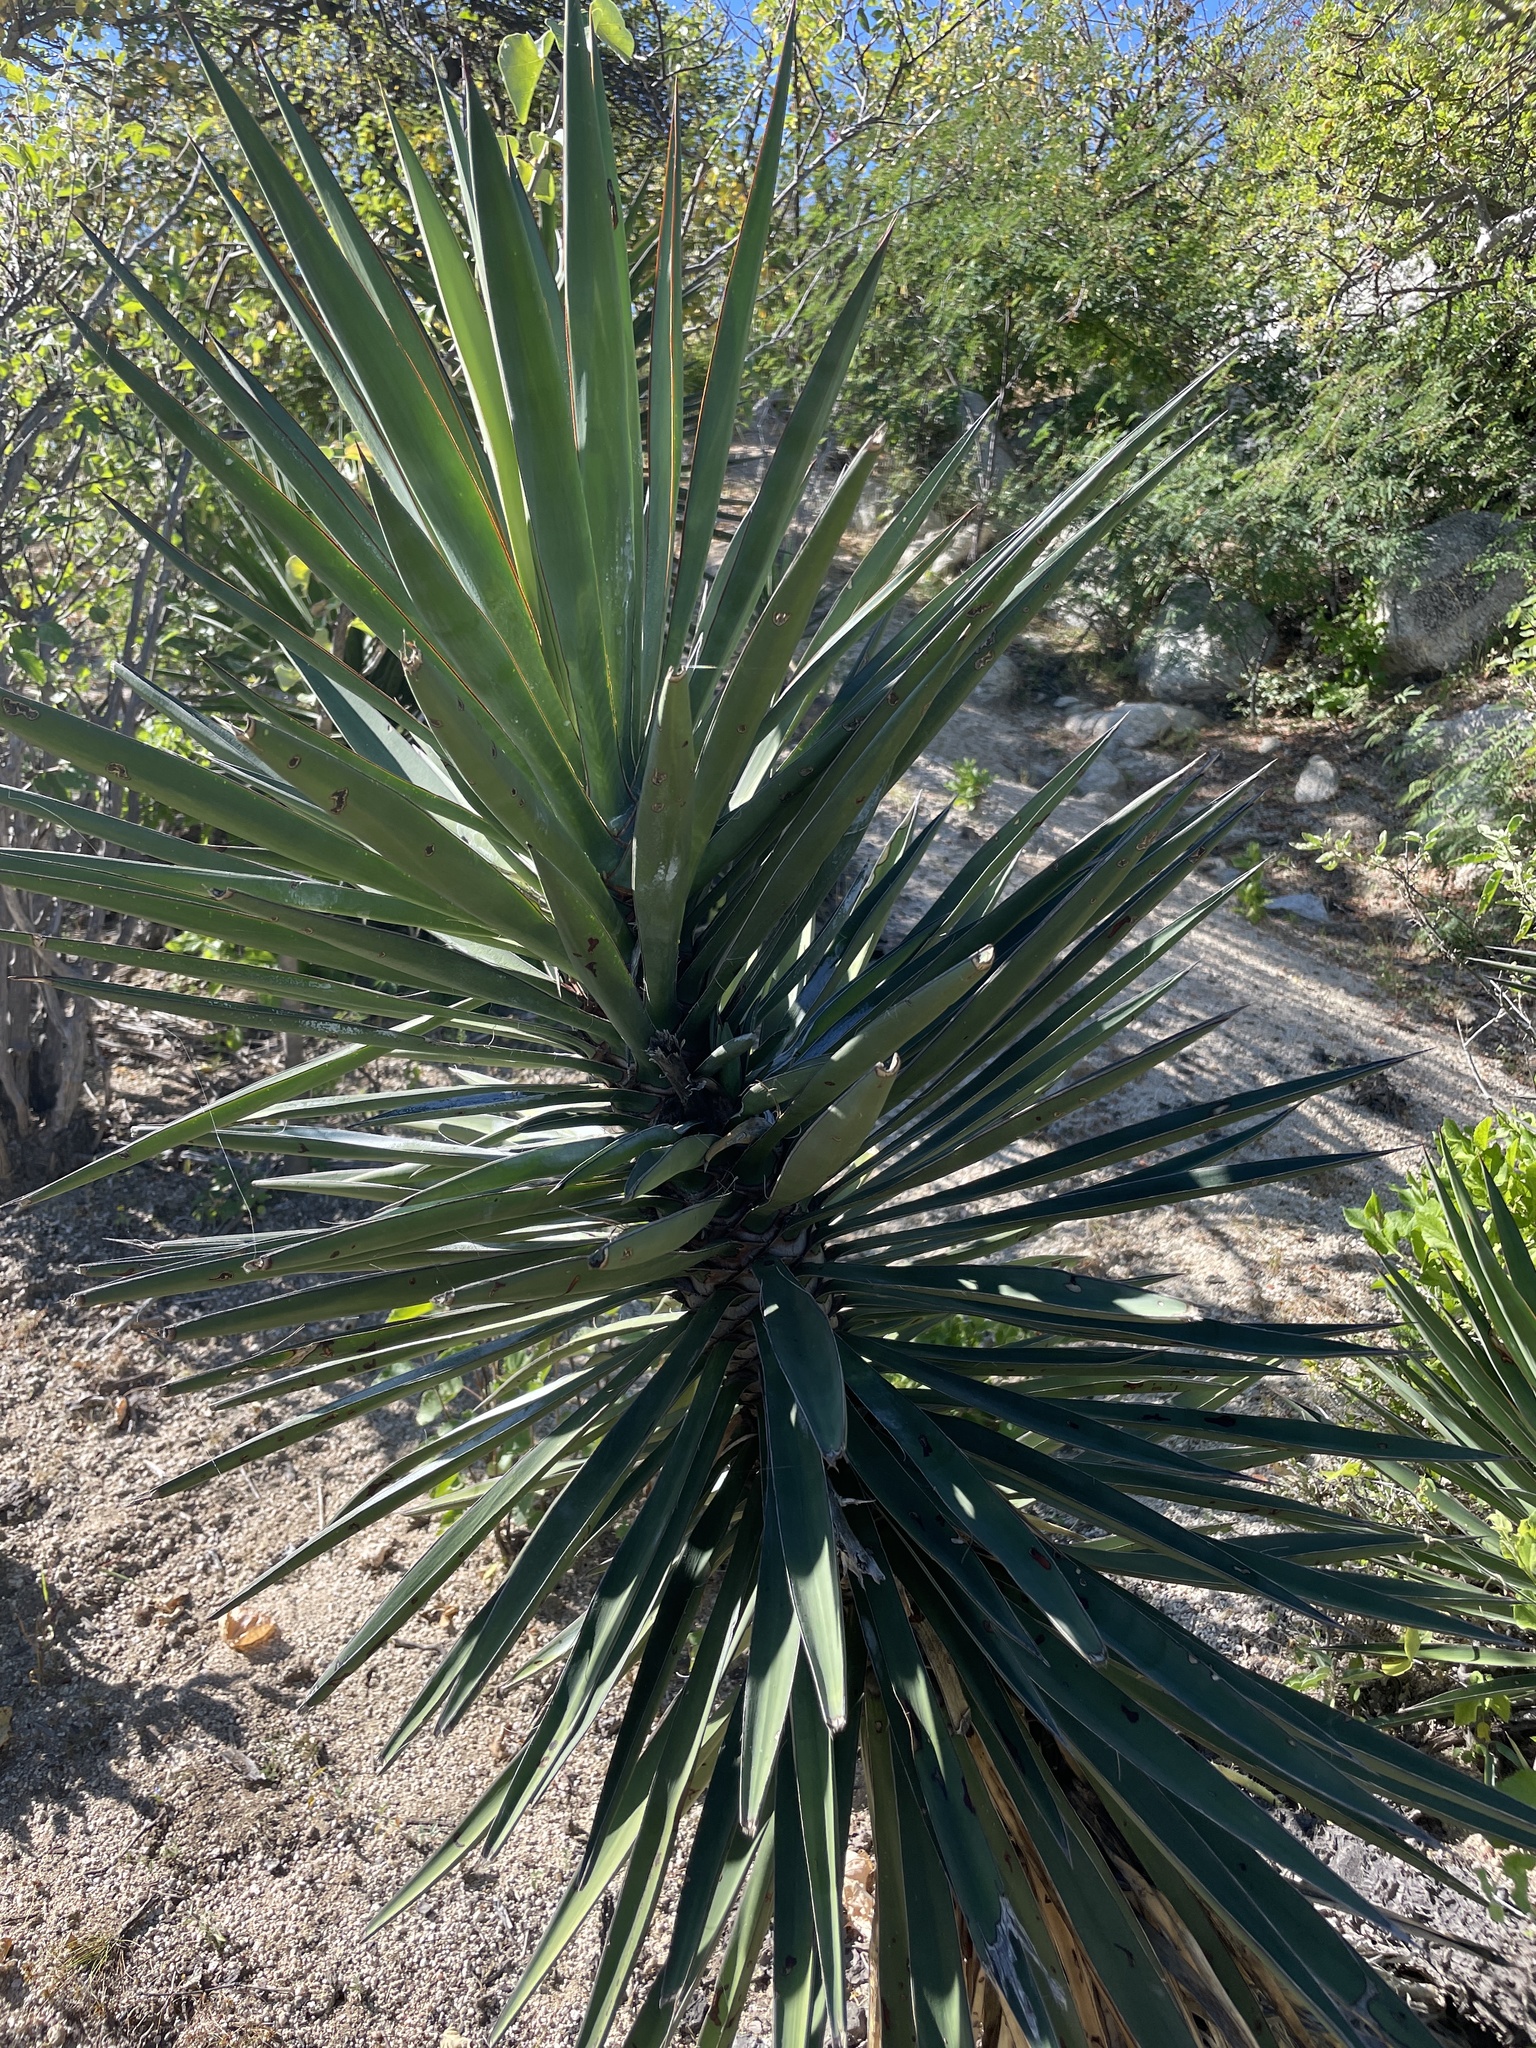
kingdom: Plantae
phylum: Tracheophyta
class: Liliopsida
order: Asparagales
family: Asparagaceae
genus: Yucca
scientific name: Yucca capensis
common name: Cape region yucca
